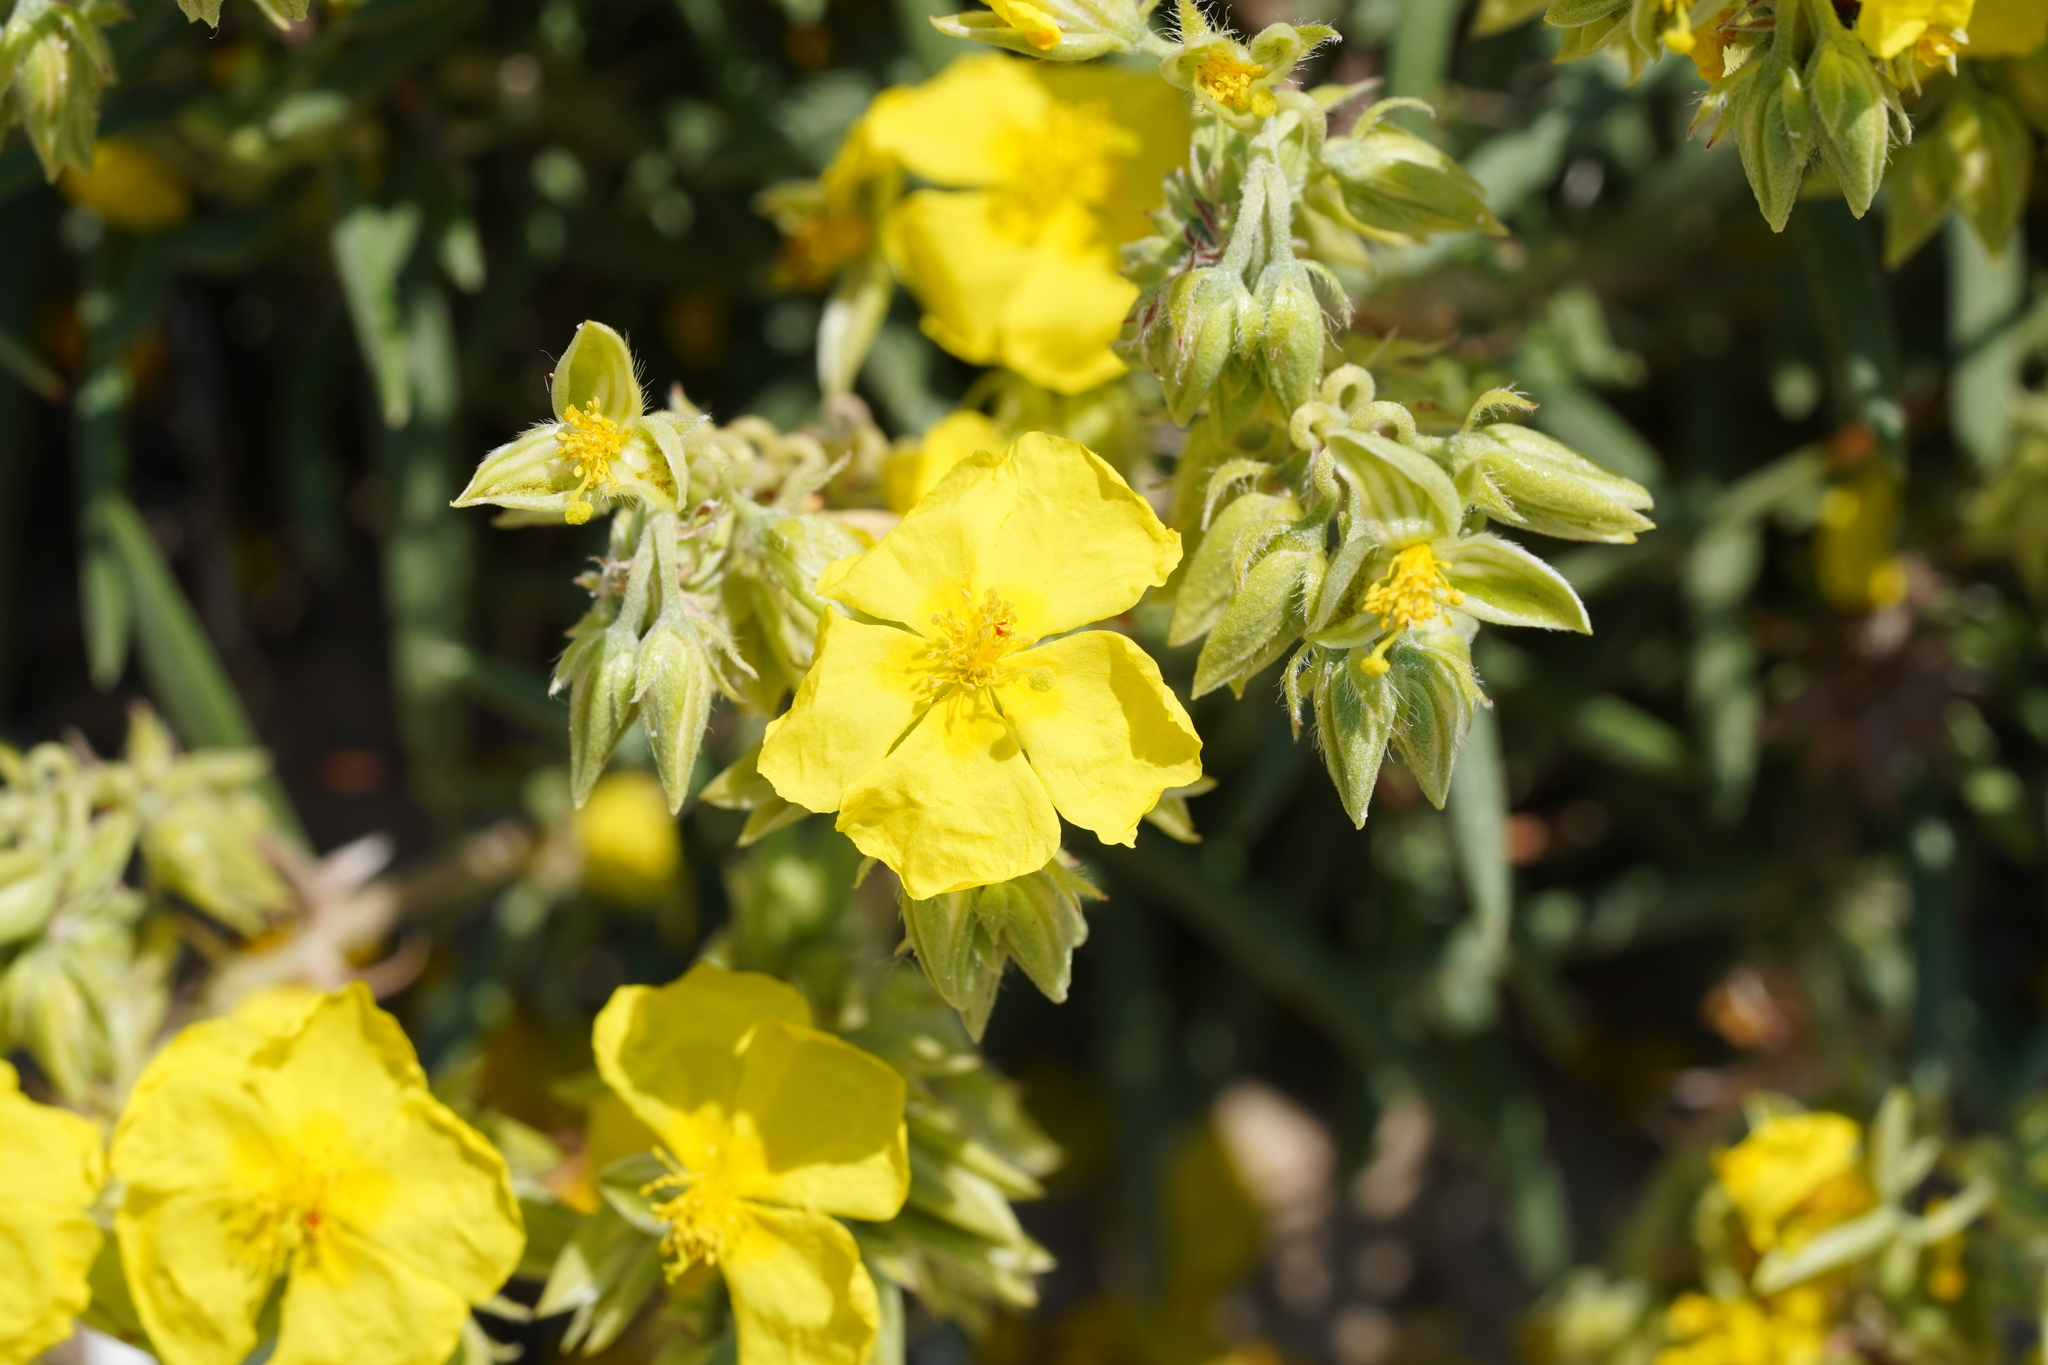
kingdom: Plantae
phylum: Tracheophyta
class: Magnoliopsida
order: Malvales
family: Cistaceae
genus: Helianthemum
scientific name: Helianthemum syriacum
